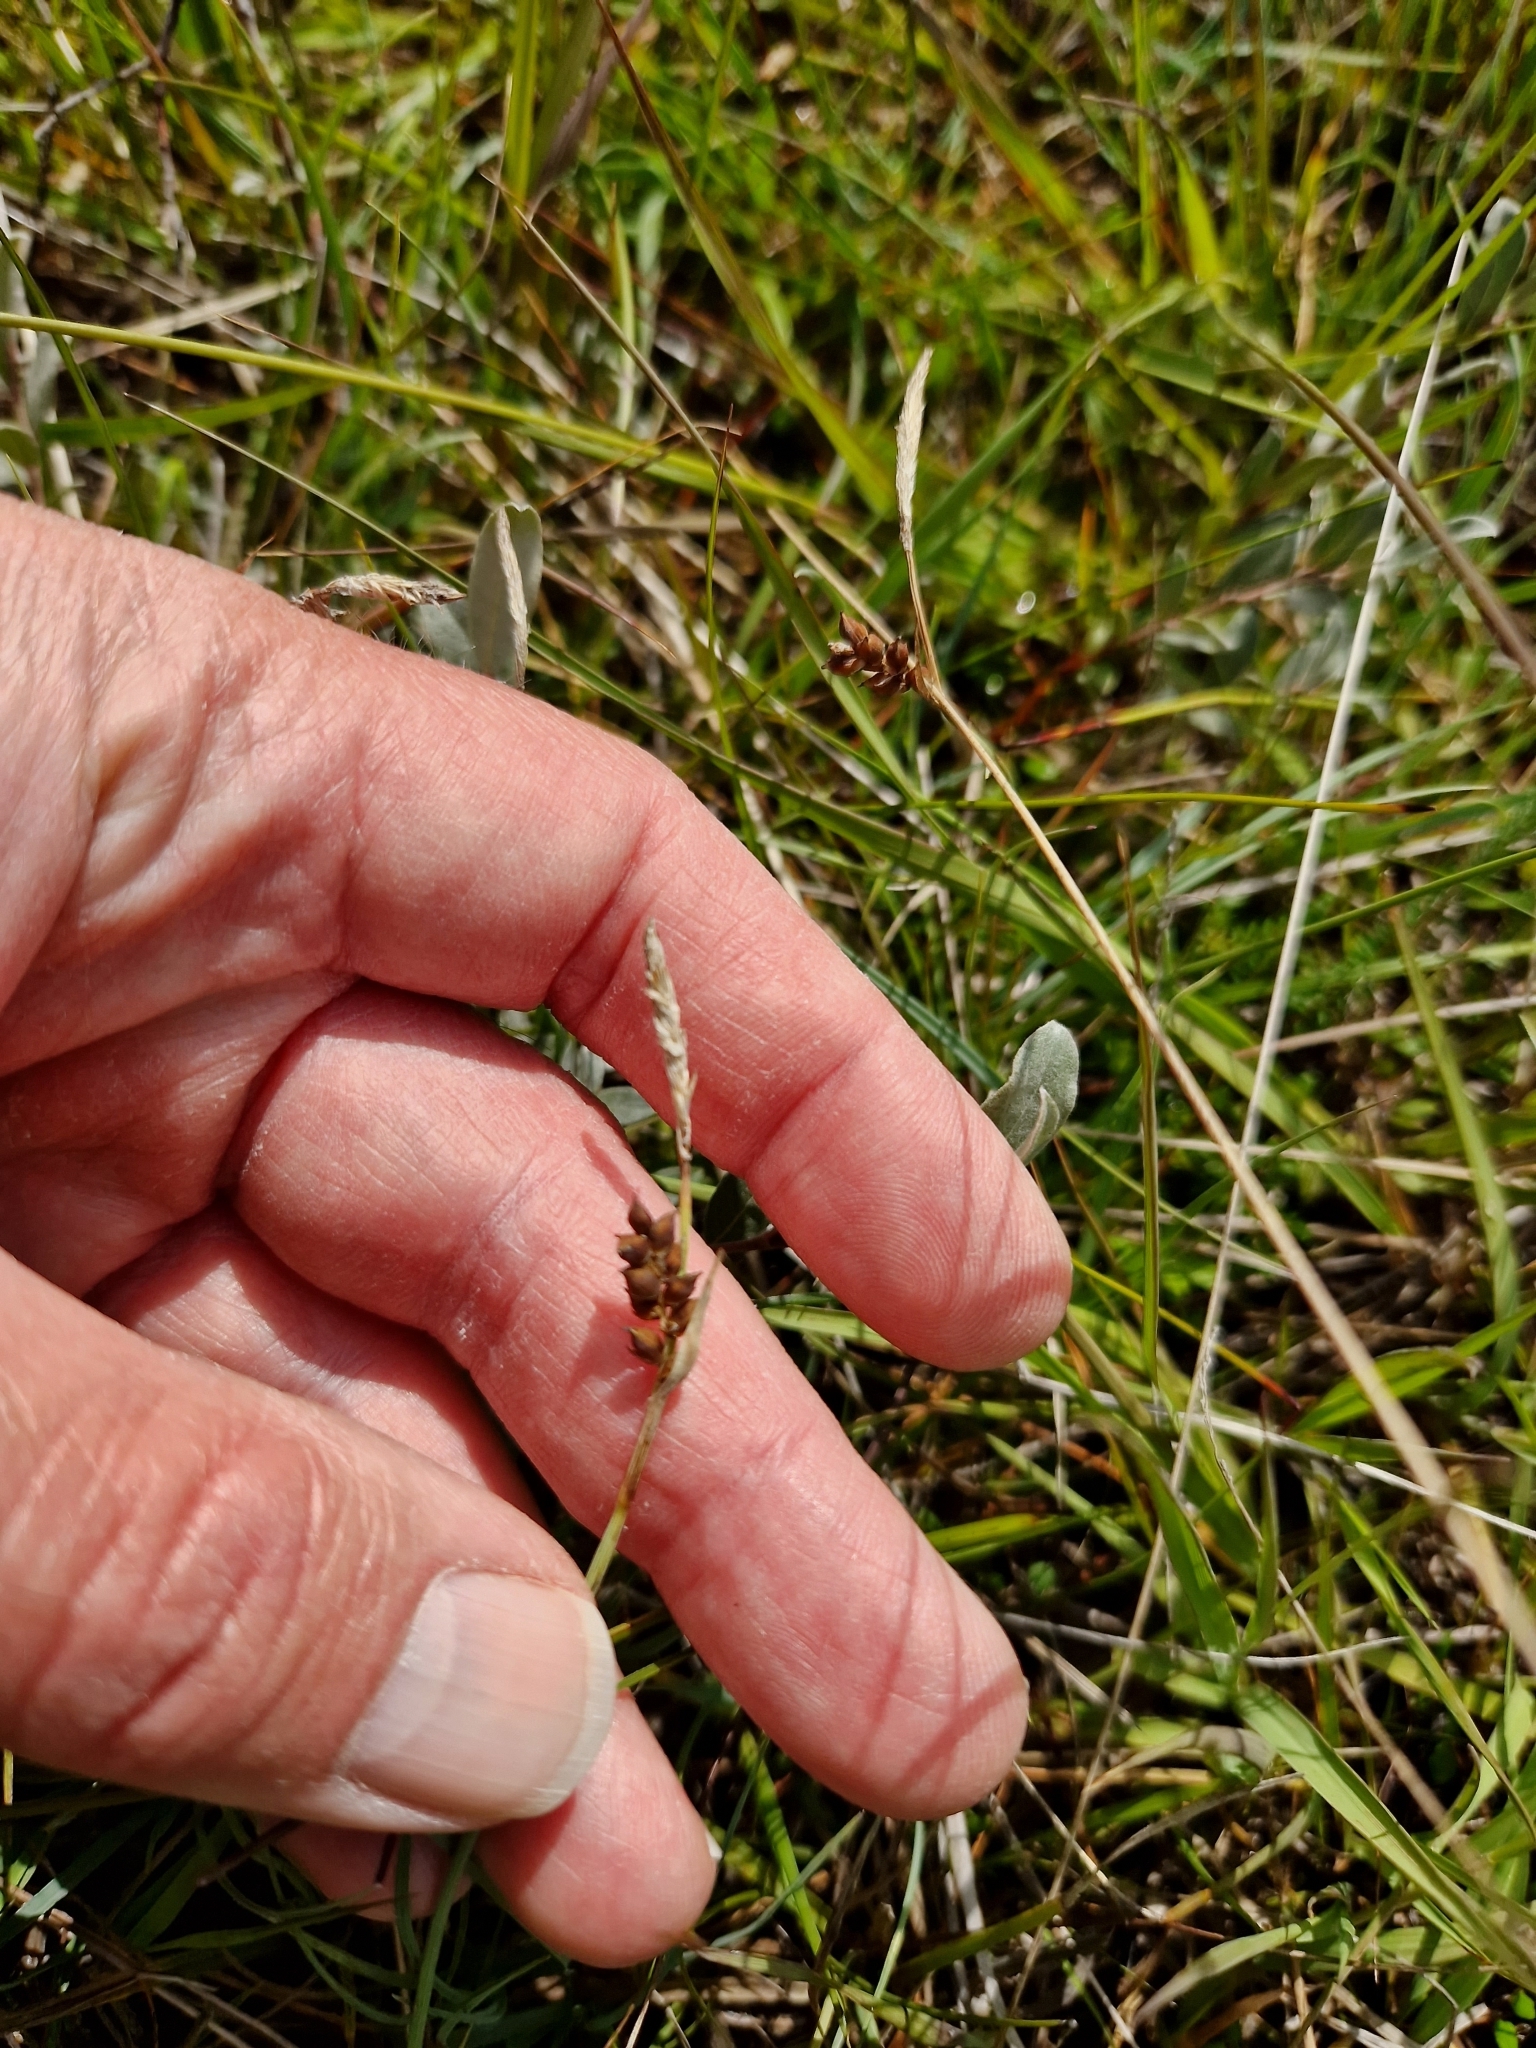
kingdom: Plantae
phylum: Tracheophyta
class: Liliopsida
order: Poales
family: Cyperaceae
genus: Carex
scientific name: Carex panicea
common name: Carnation sedge
